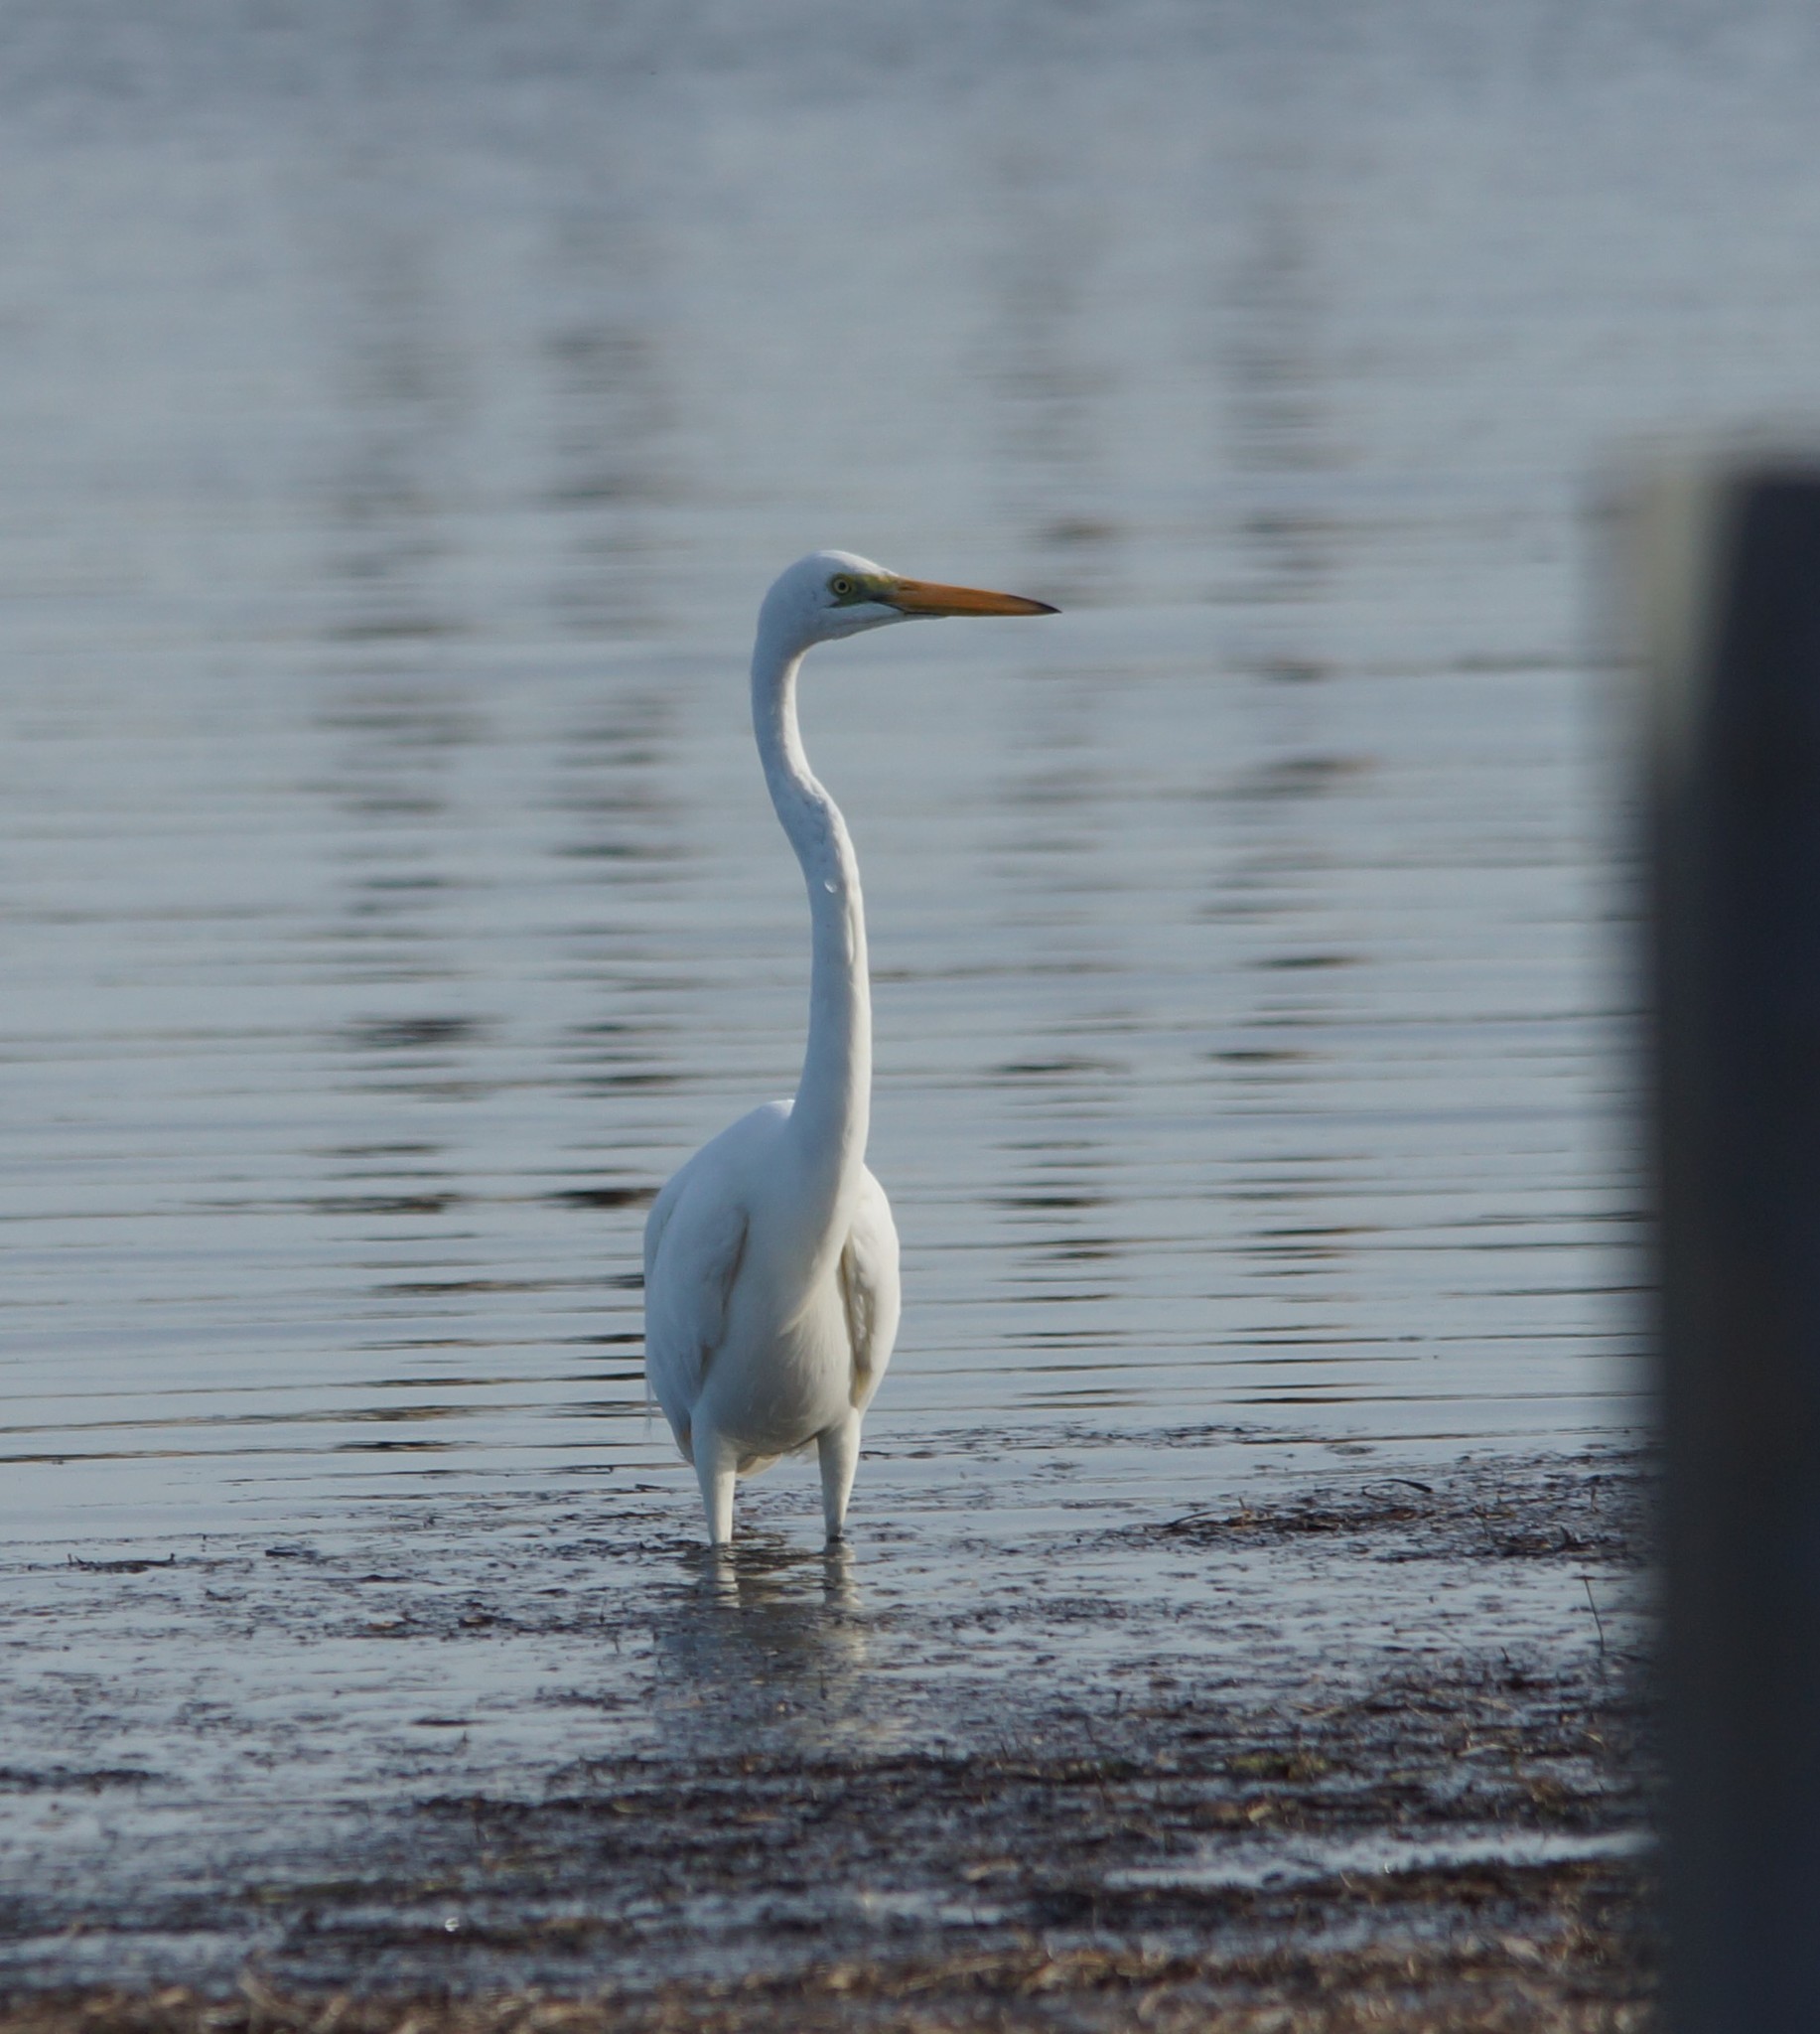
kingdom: Animalia
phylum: Chordata
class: Aves
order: Pelecaniformes
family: Ardeidae
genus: Ardea
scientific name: Ardea alba
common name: Great egret
